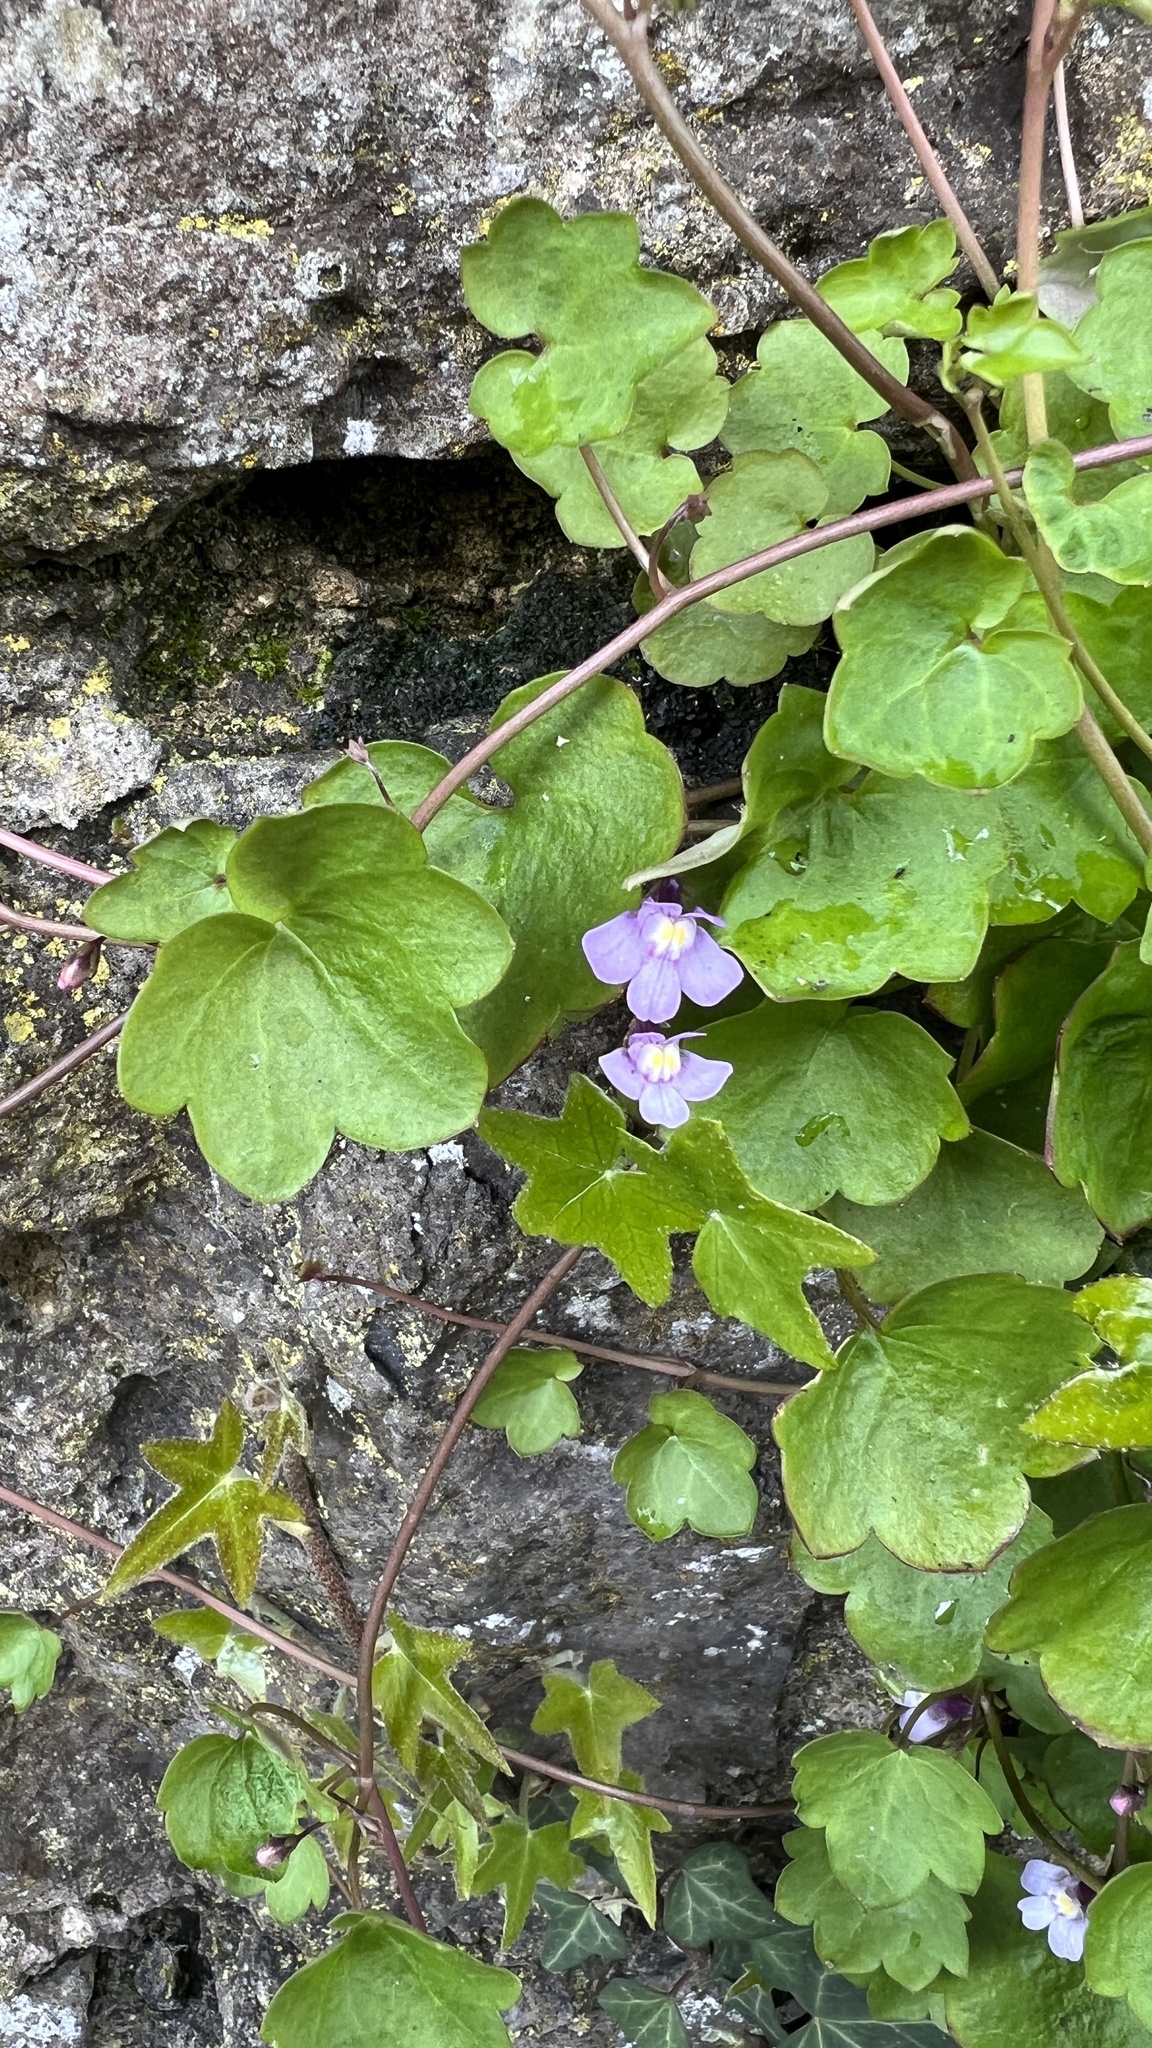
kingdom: Plantae
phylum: Tracheophyta
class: Magnoliopsida
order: Lamiales
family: Plantaginaceae
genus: Cymbalaria
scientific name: Cymbalaria muralis
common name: Ivy-leaved toadflax
